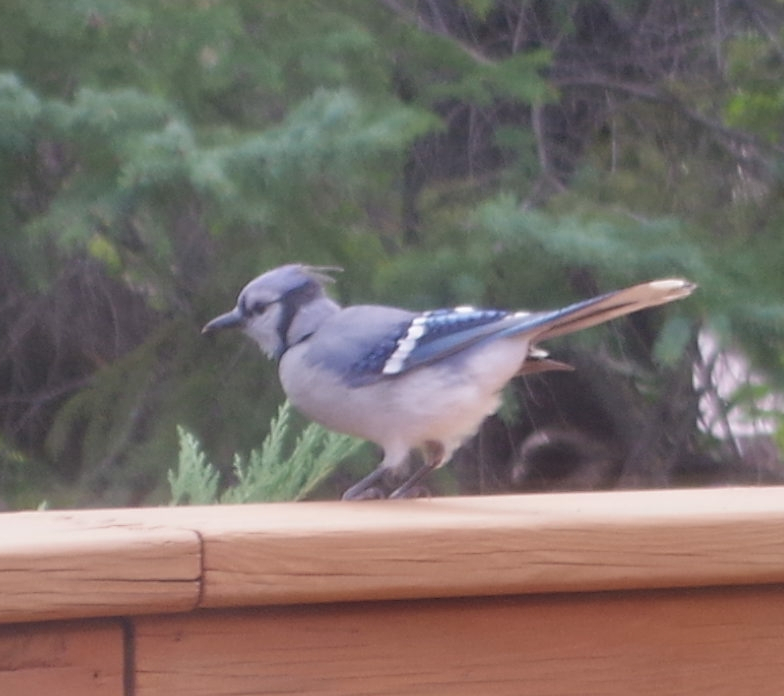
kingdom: Animalia
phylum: Chordata
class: Aves
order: Passeriformes
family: Corvidae
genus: Cyanocitta
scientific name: Cyanocitta cristata
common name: Blue jay
